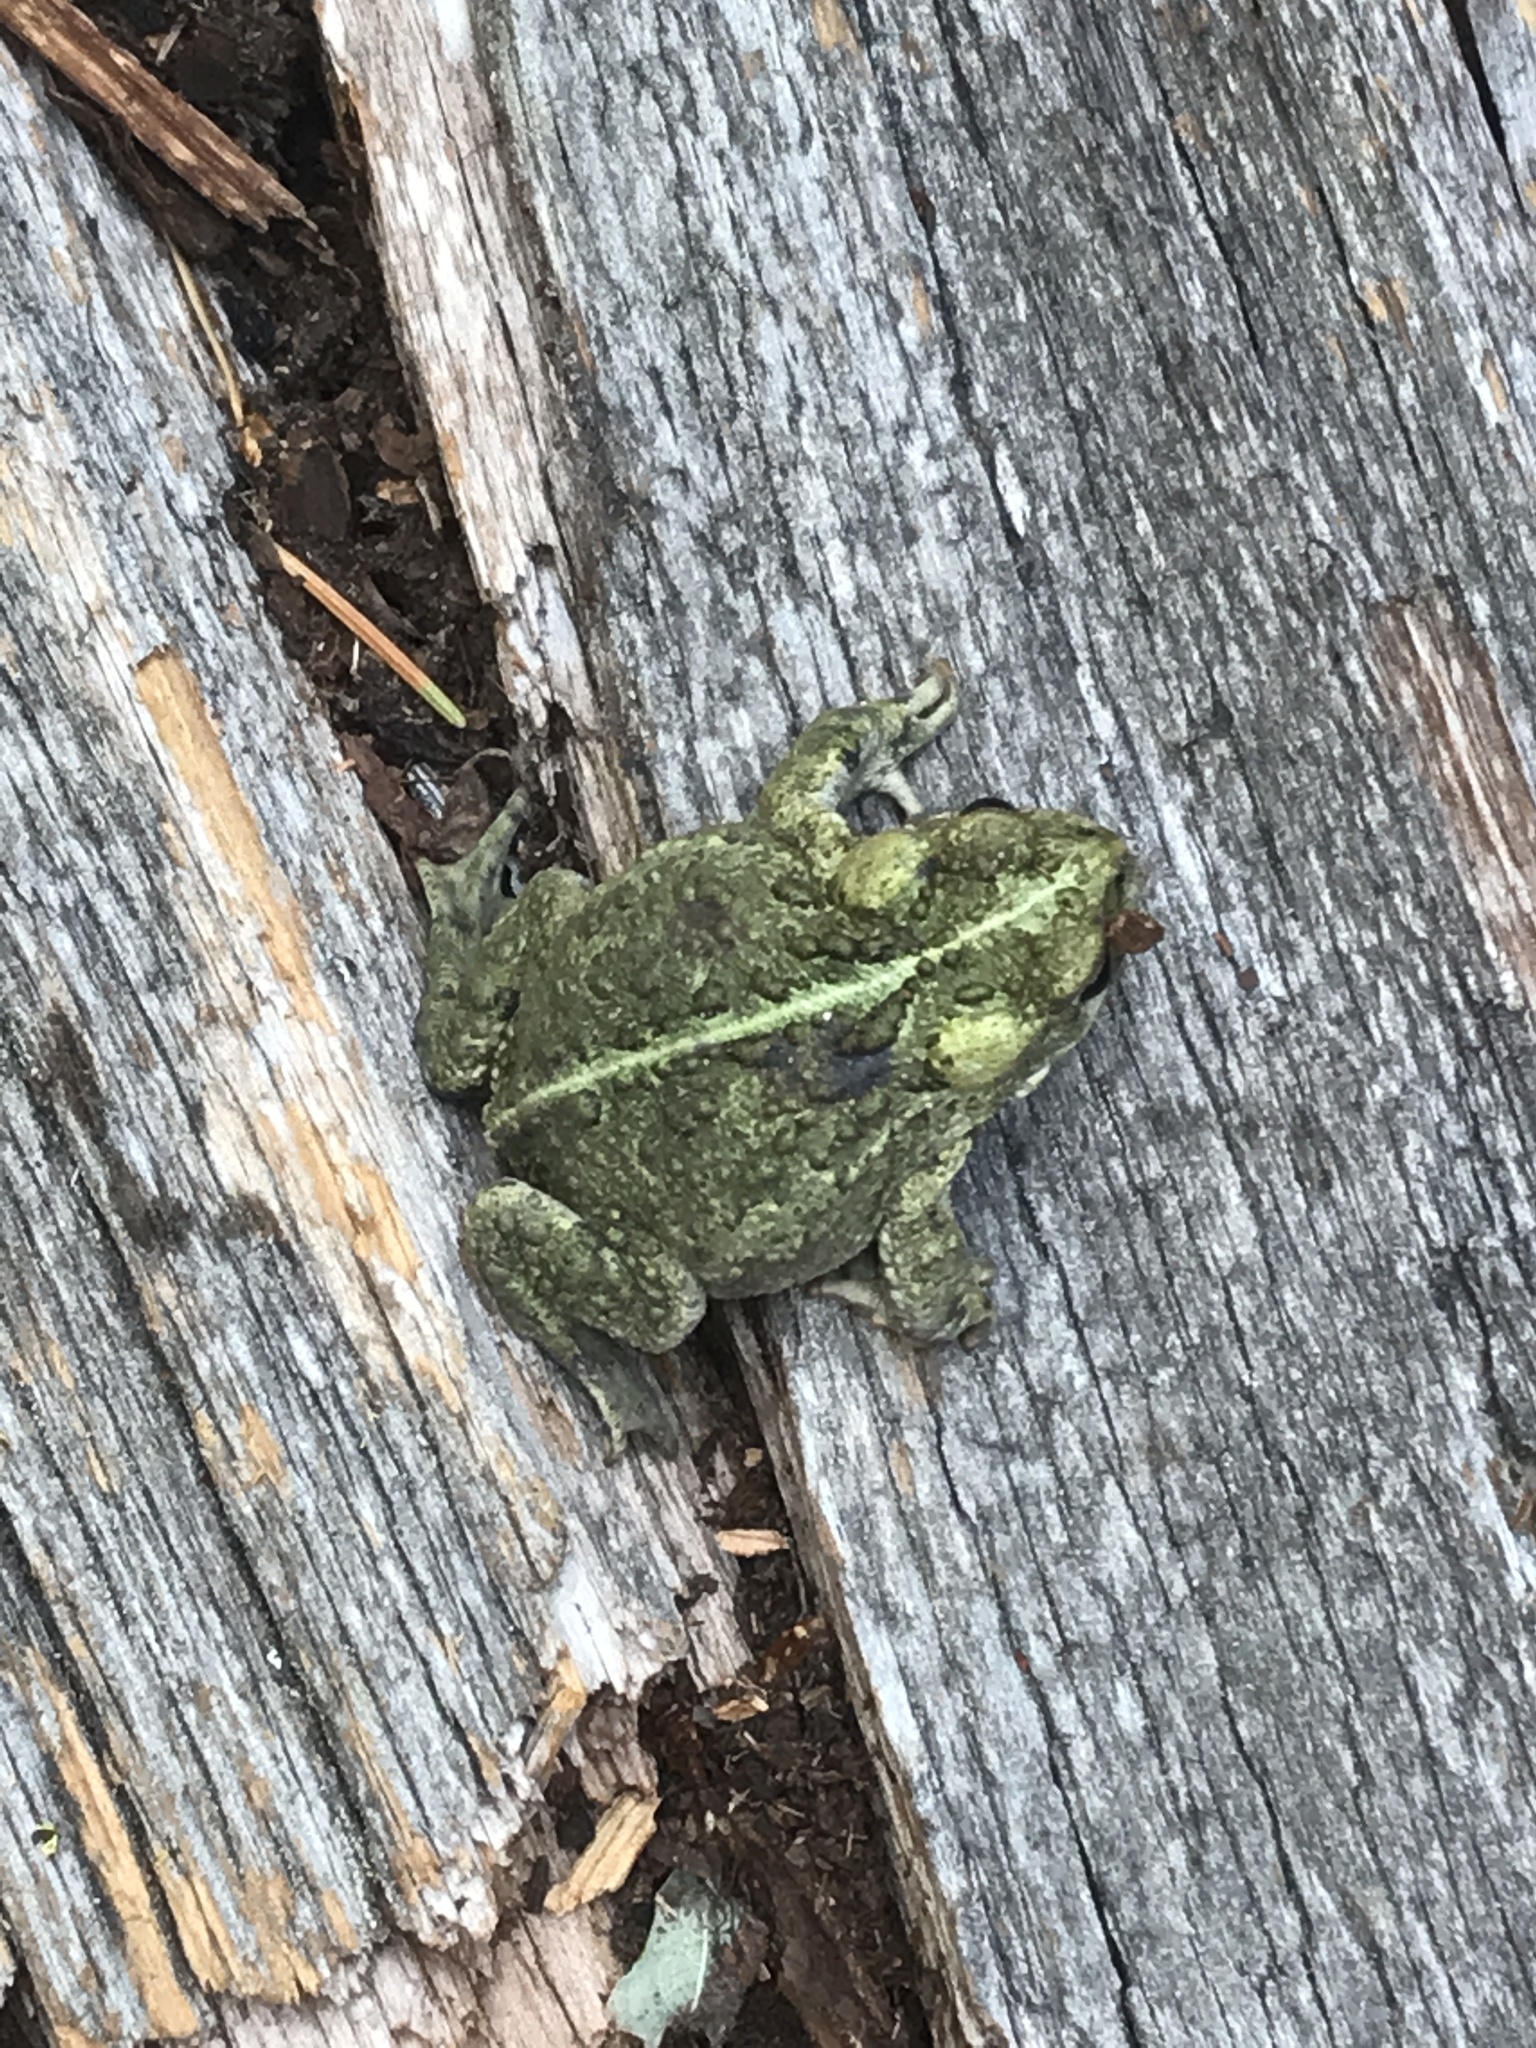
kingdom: Animalia
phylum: Chordata
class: Amphibia
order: Anura
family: Bufonidae
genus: Anaxyrus
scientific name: Anaxyrus boreas
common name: Western toad
